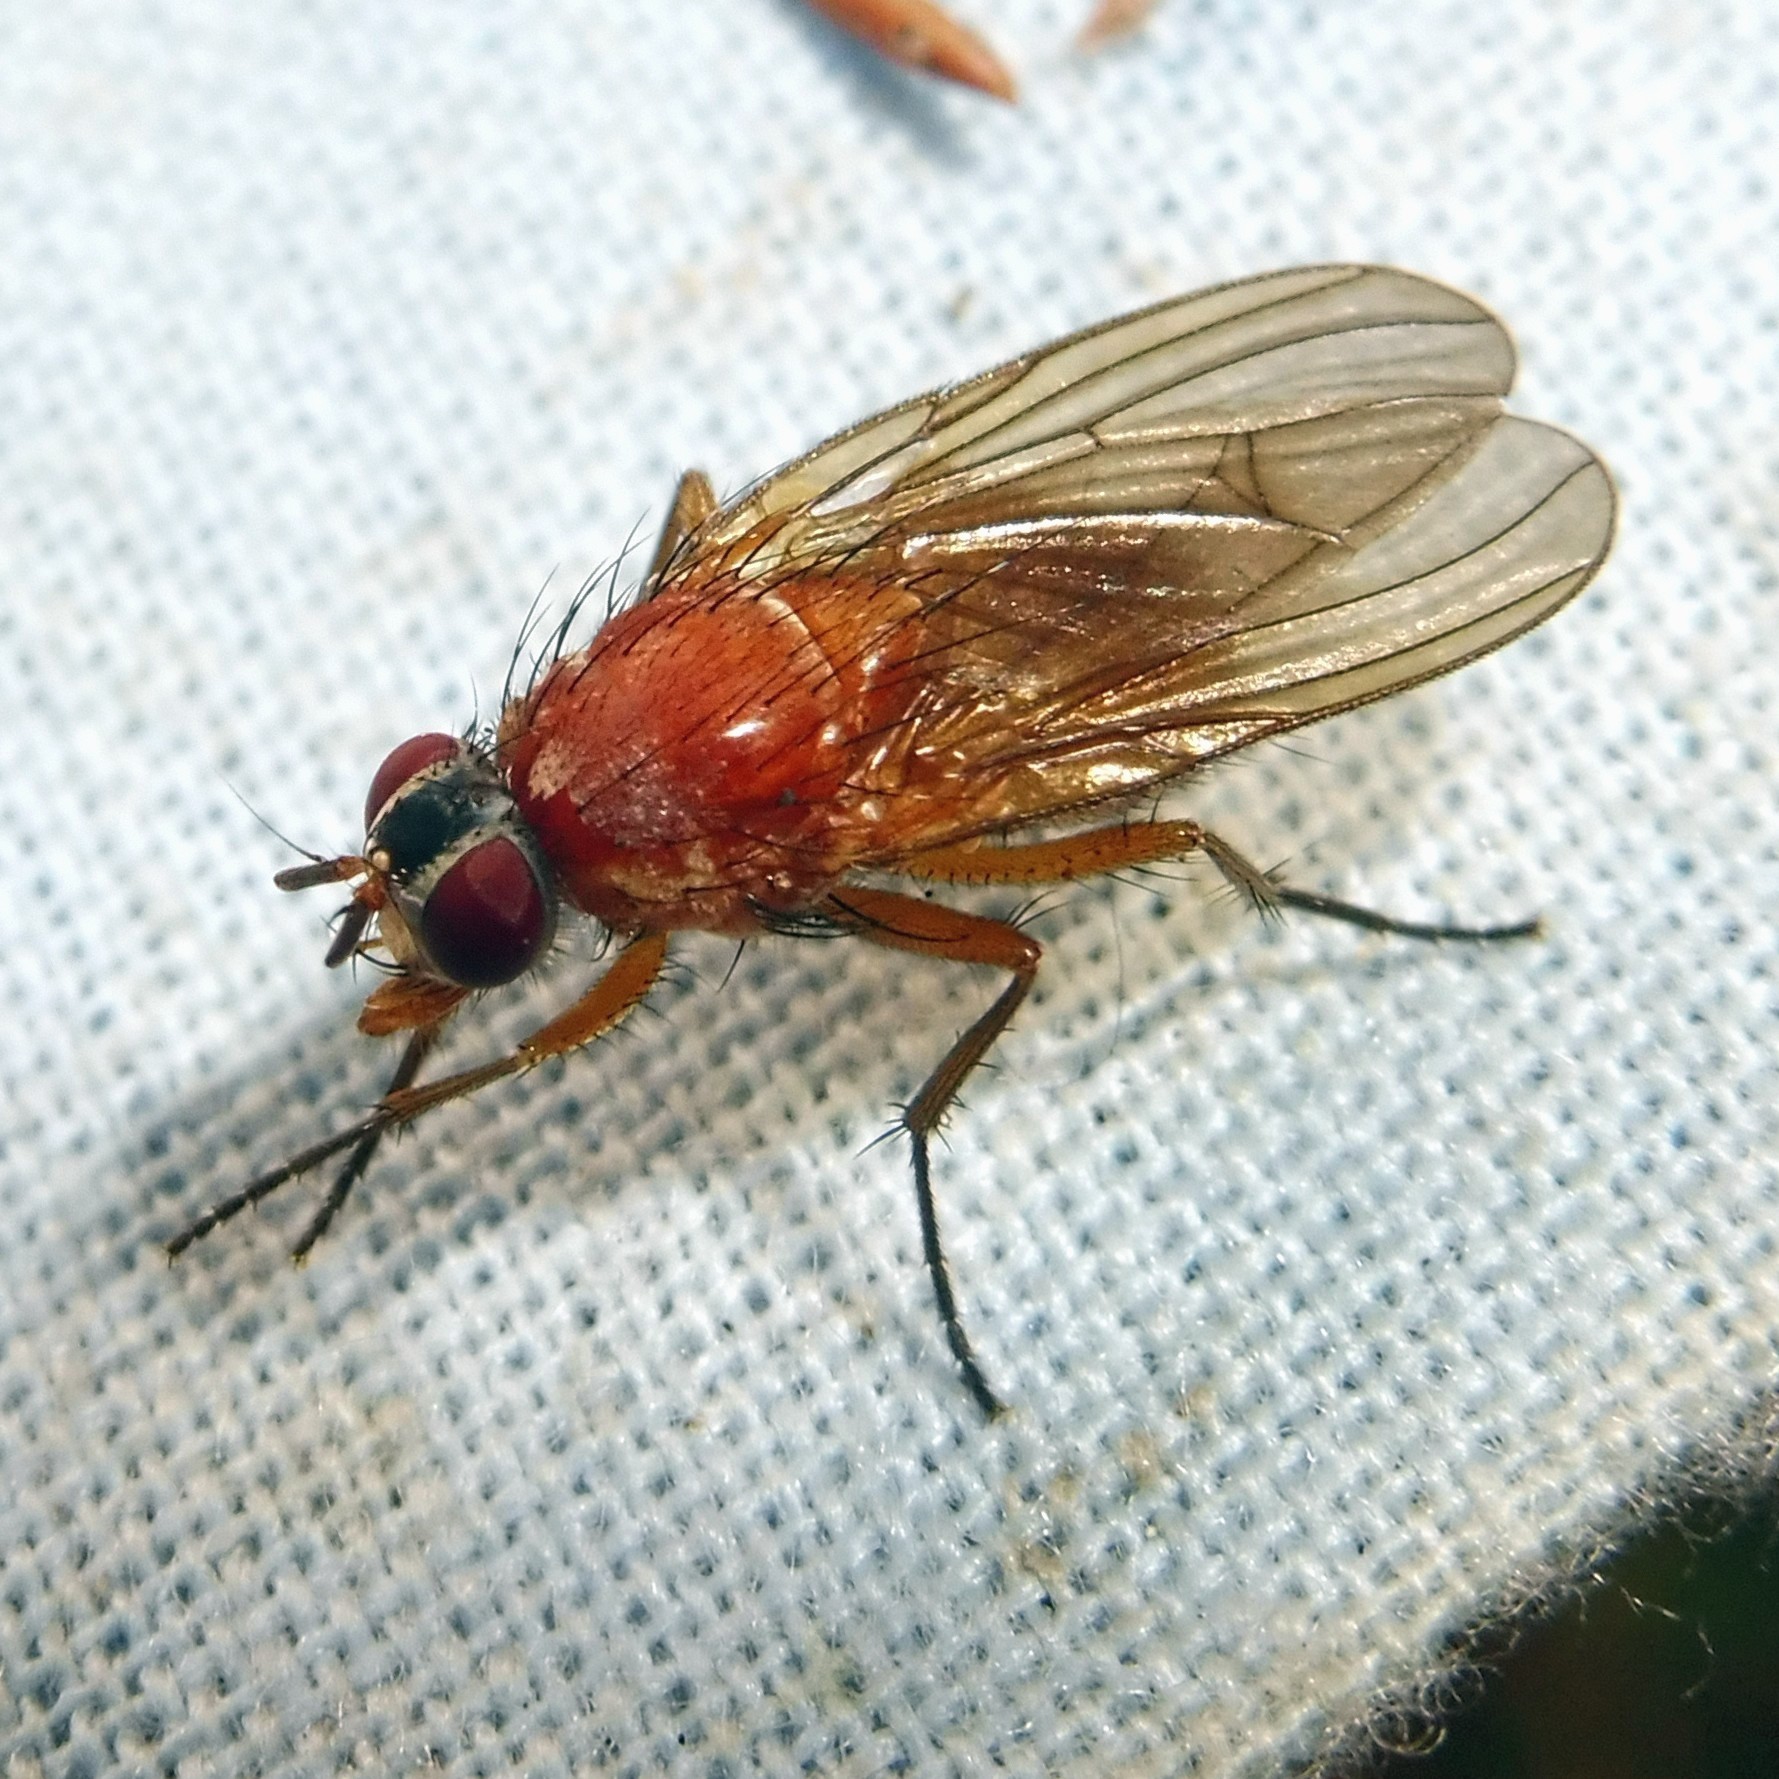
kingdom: Animalia
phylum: Arthropoda
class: Insecta
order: Diptera
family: Muscidae
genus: Thricops
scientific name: Thricops diaphanus
